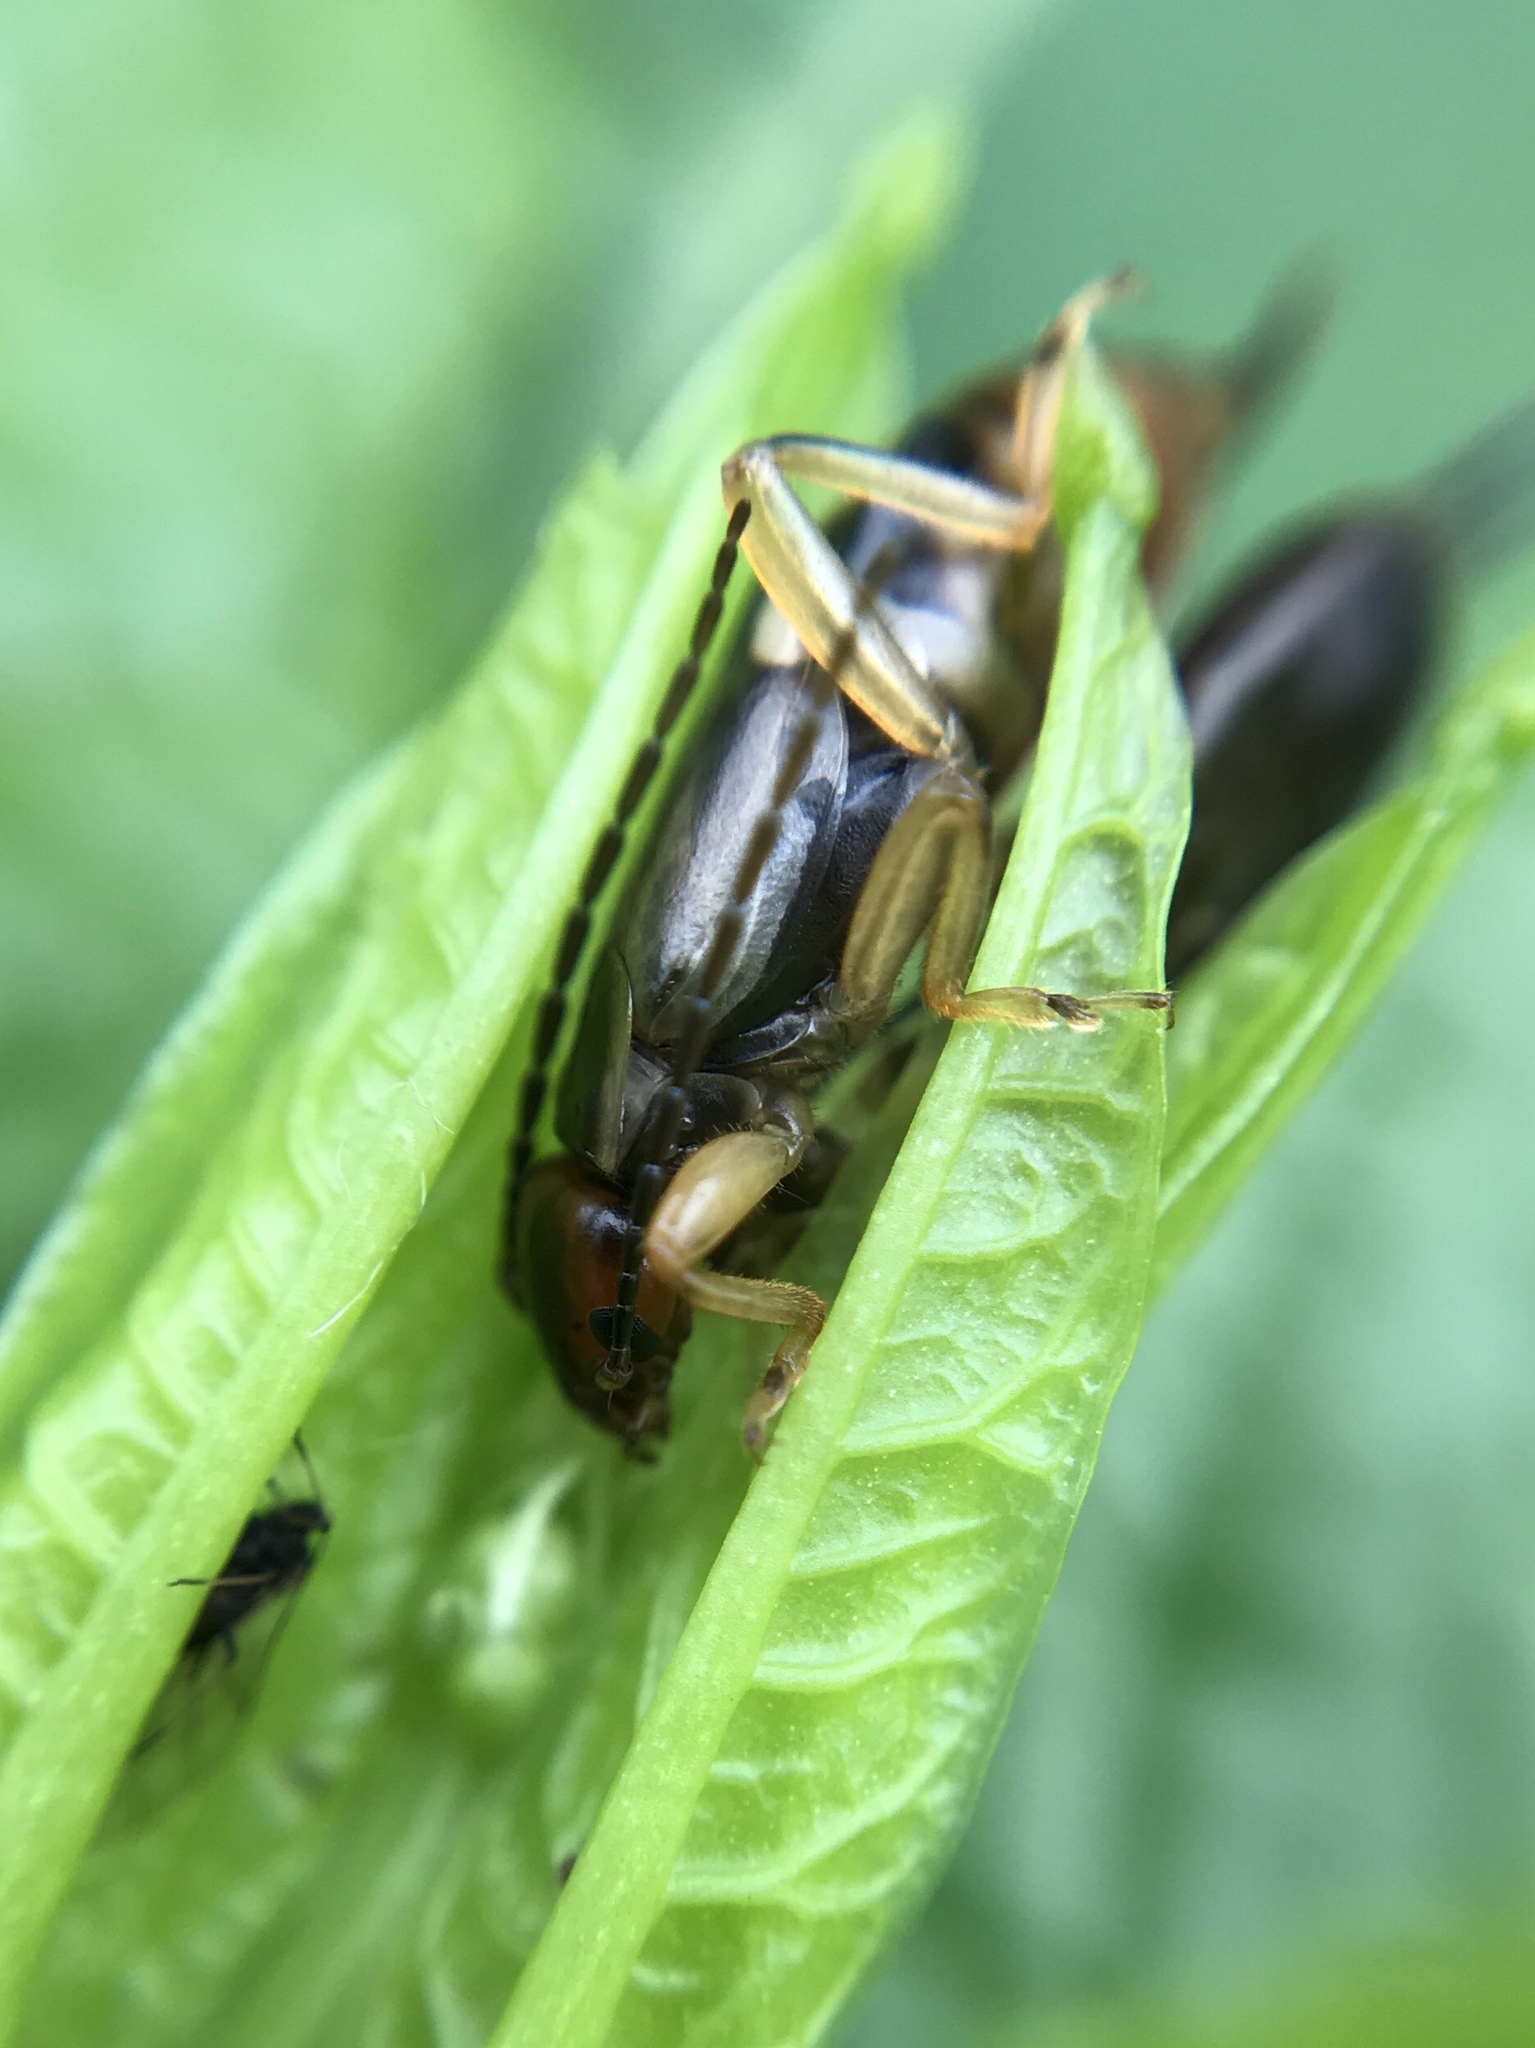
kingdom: Animalia
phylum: Arthropoda
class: Insecta
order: Dermaptera
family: Forficulidae
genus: Forficula
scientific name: Forficula
